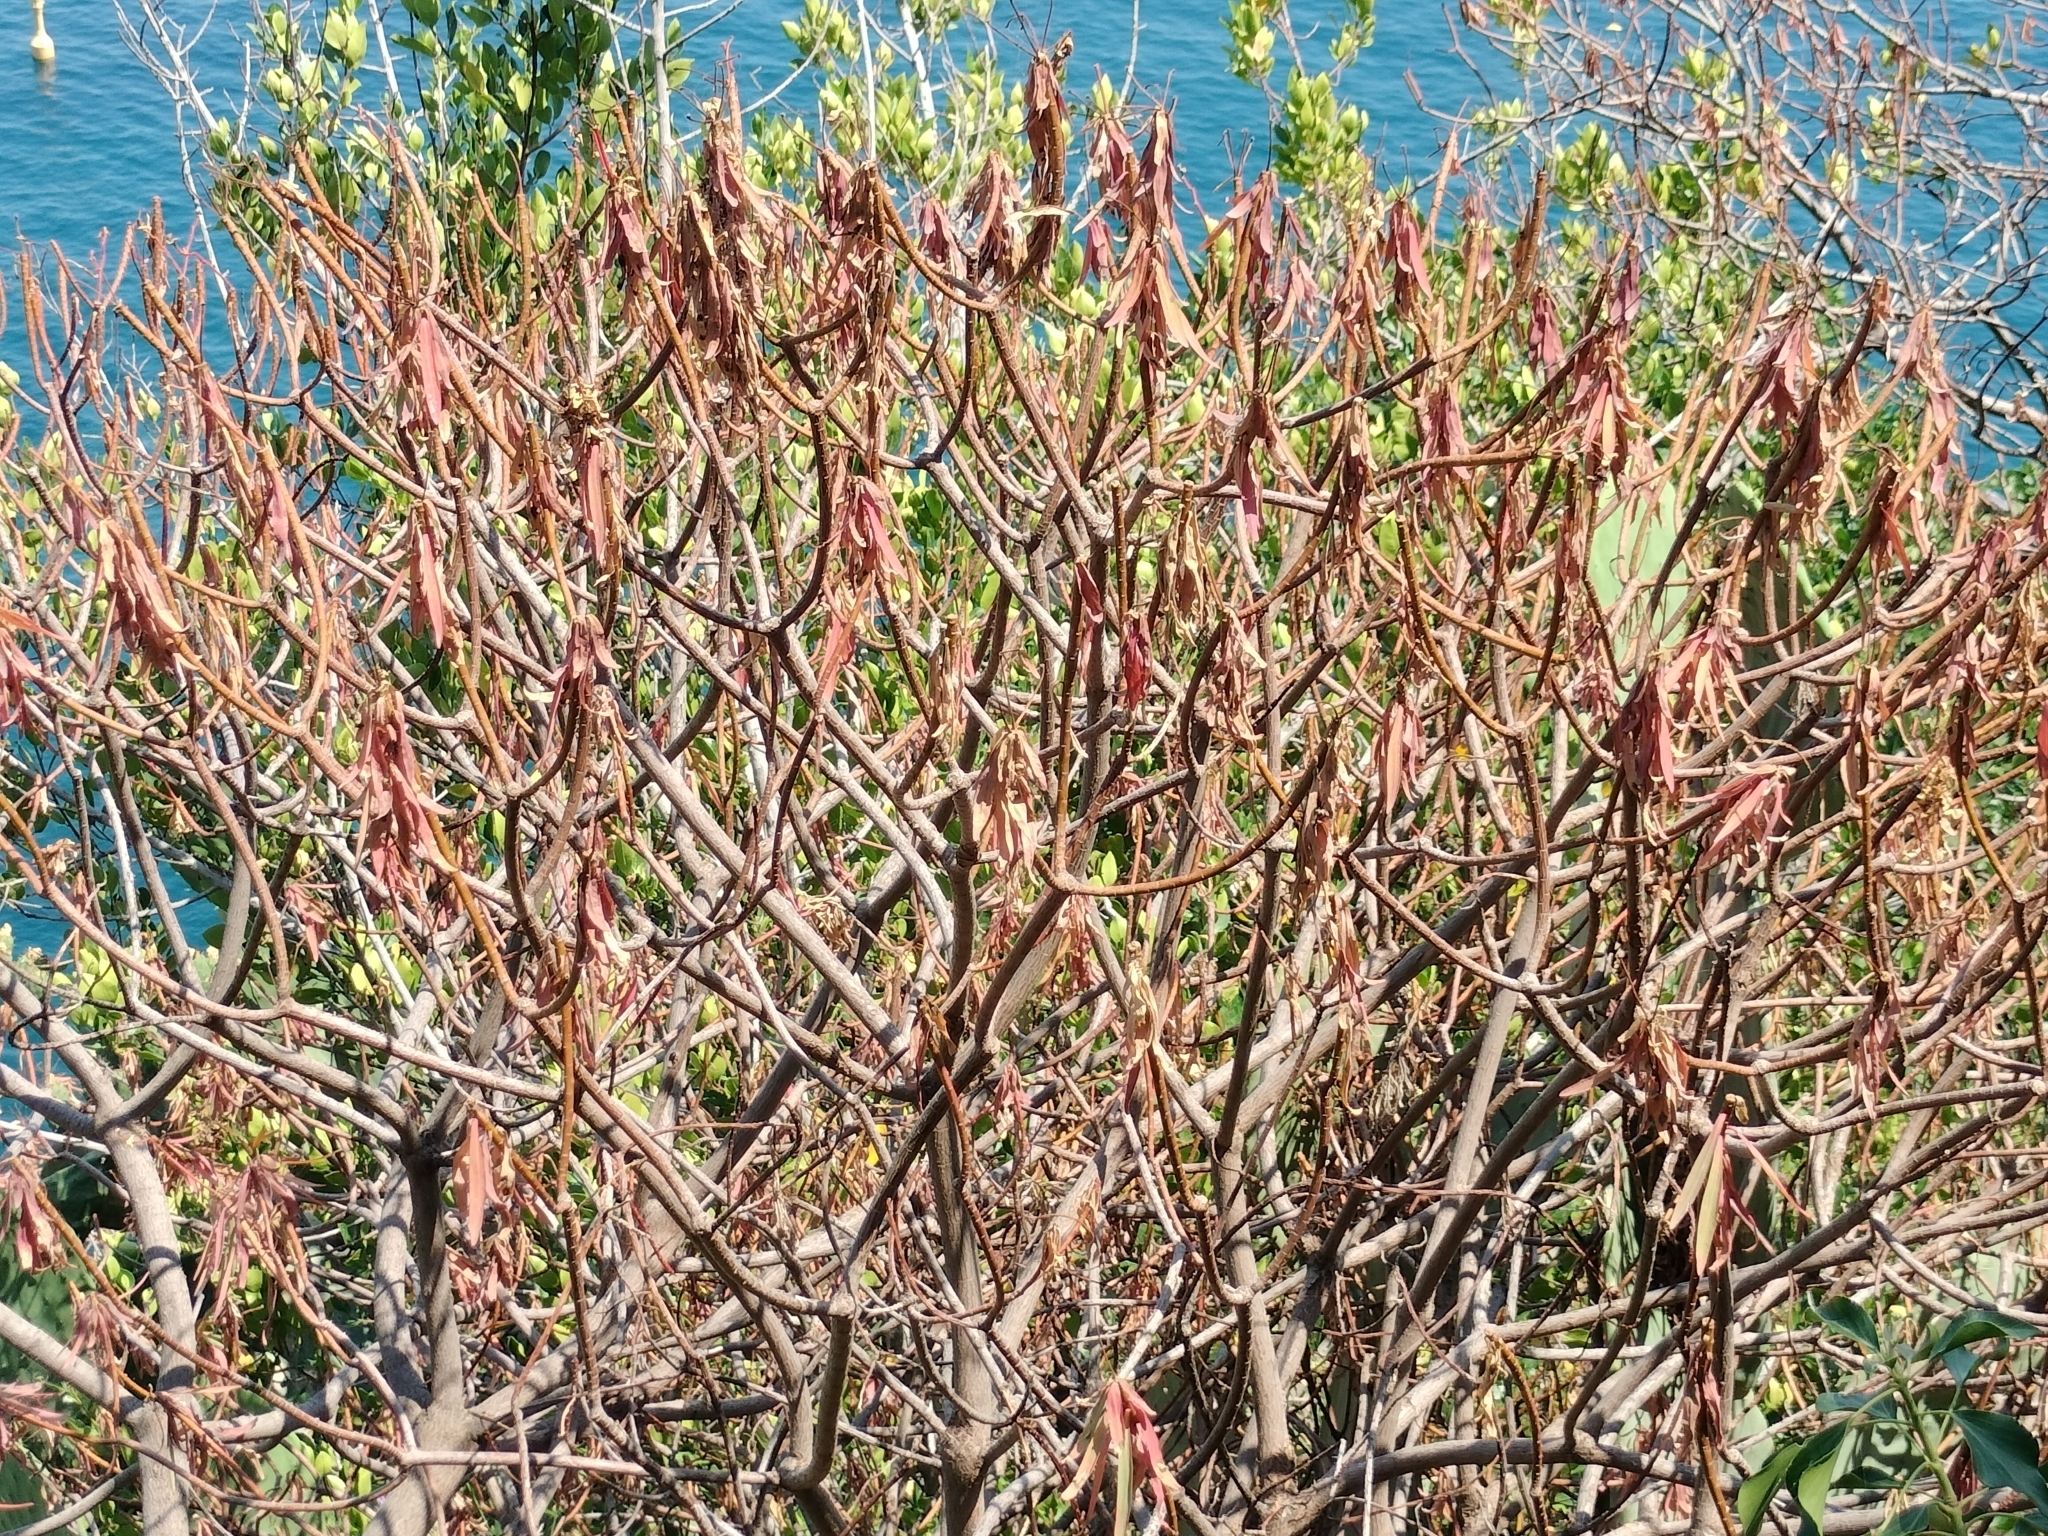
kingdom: Plantae
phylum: Tracheophyta
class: Magnoliopsida
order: Malpighiales
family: Euphorbiaceae
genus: Euphorbia
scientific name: Euphorbia dendroides
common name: Tree spurge
